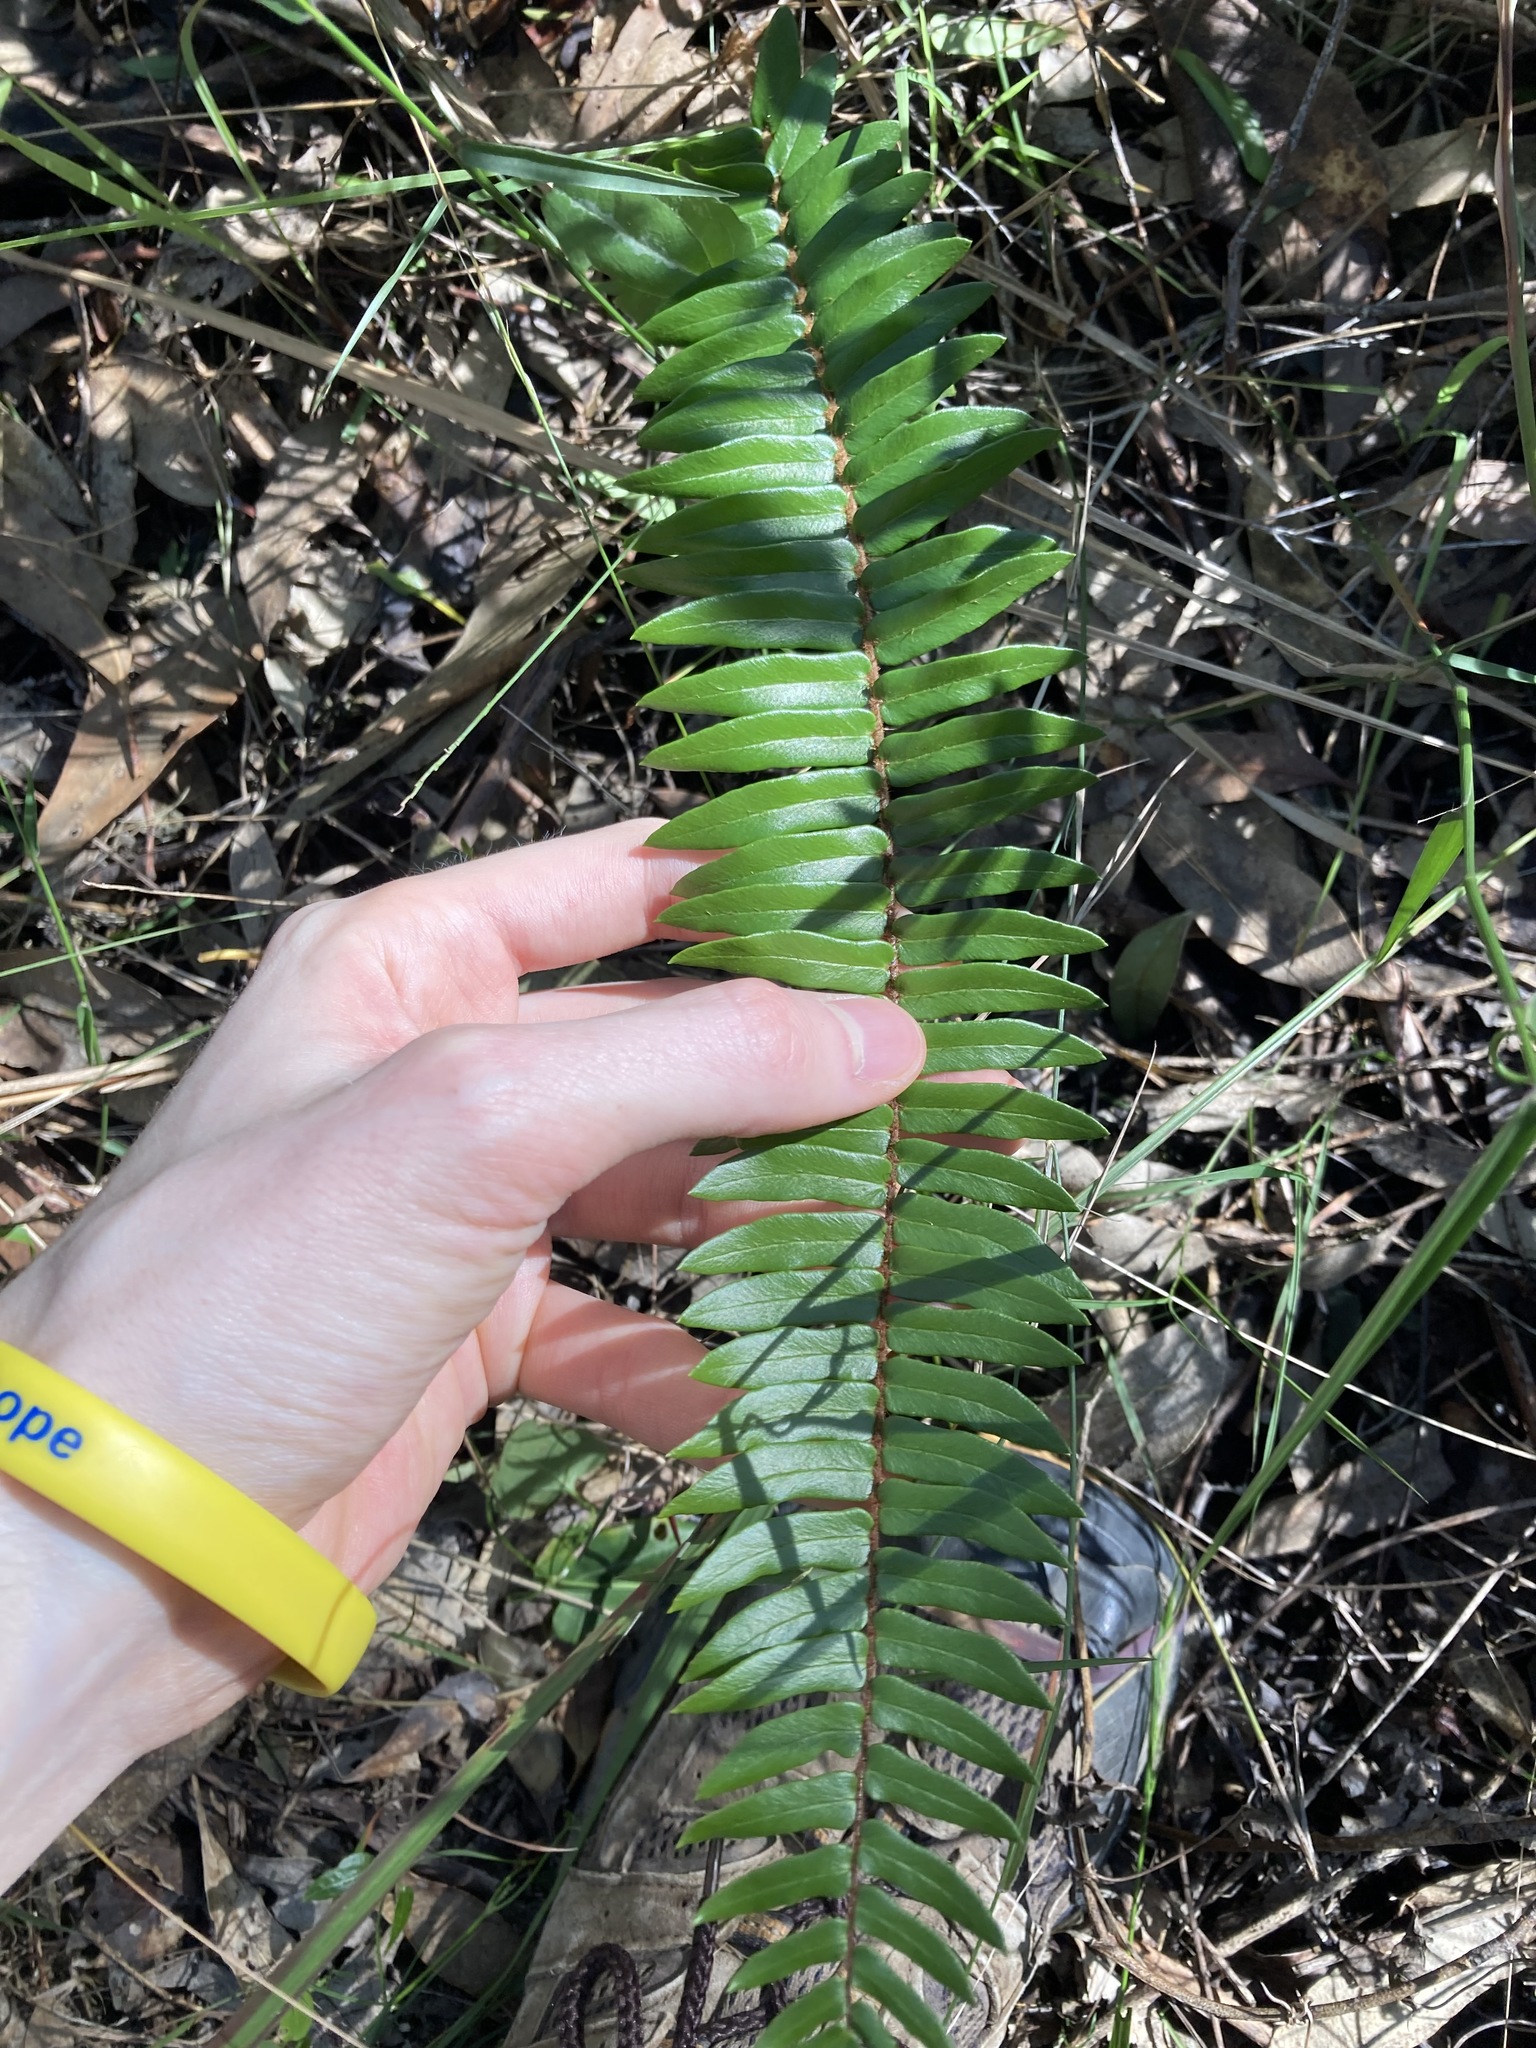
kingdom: Plantae
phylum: Tracheophyta
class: Polypodiopsida
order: Polypodiales
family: Pteridaceae
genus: Pellaea
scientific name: Pellaea falcata
